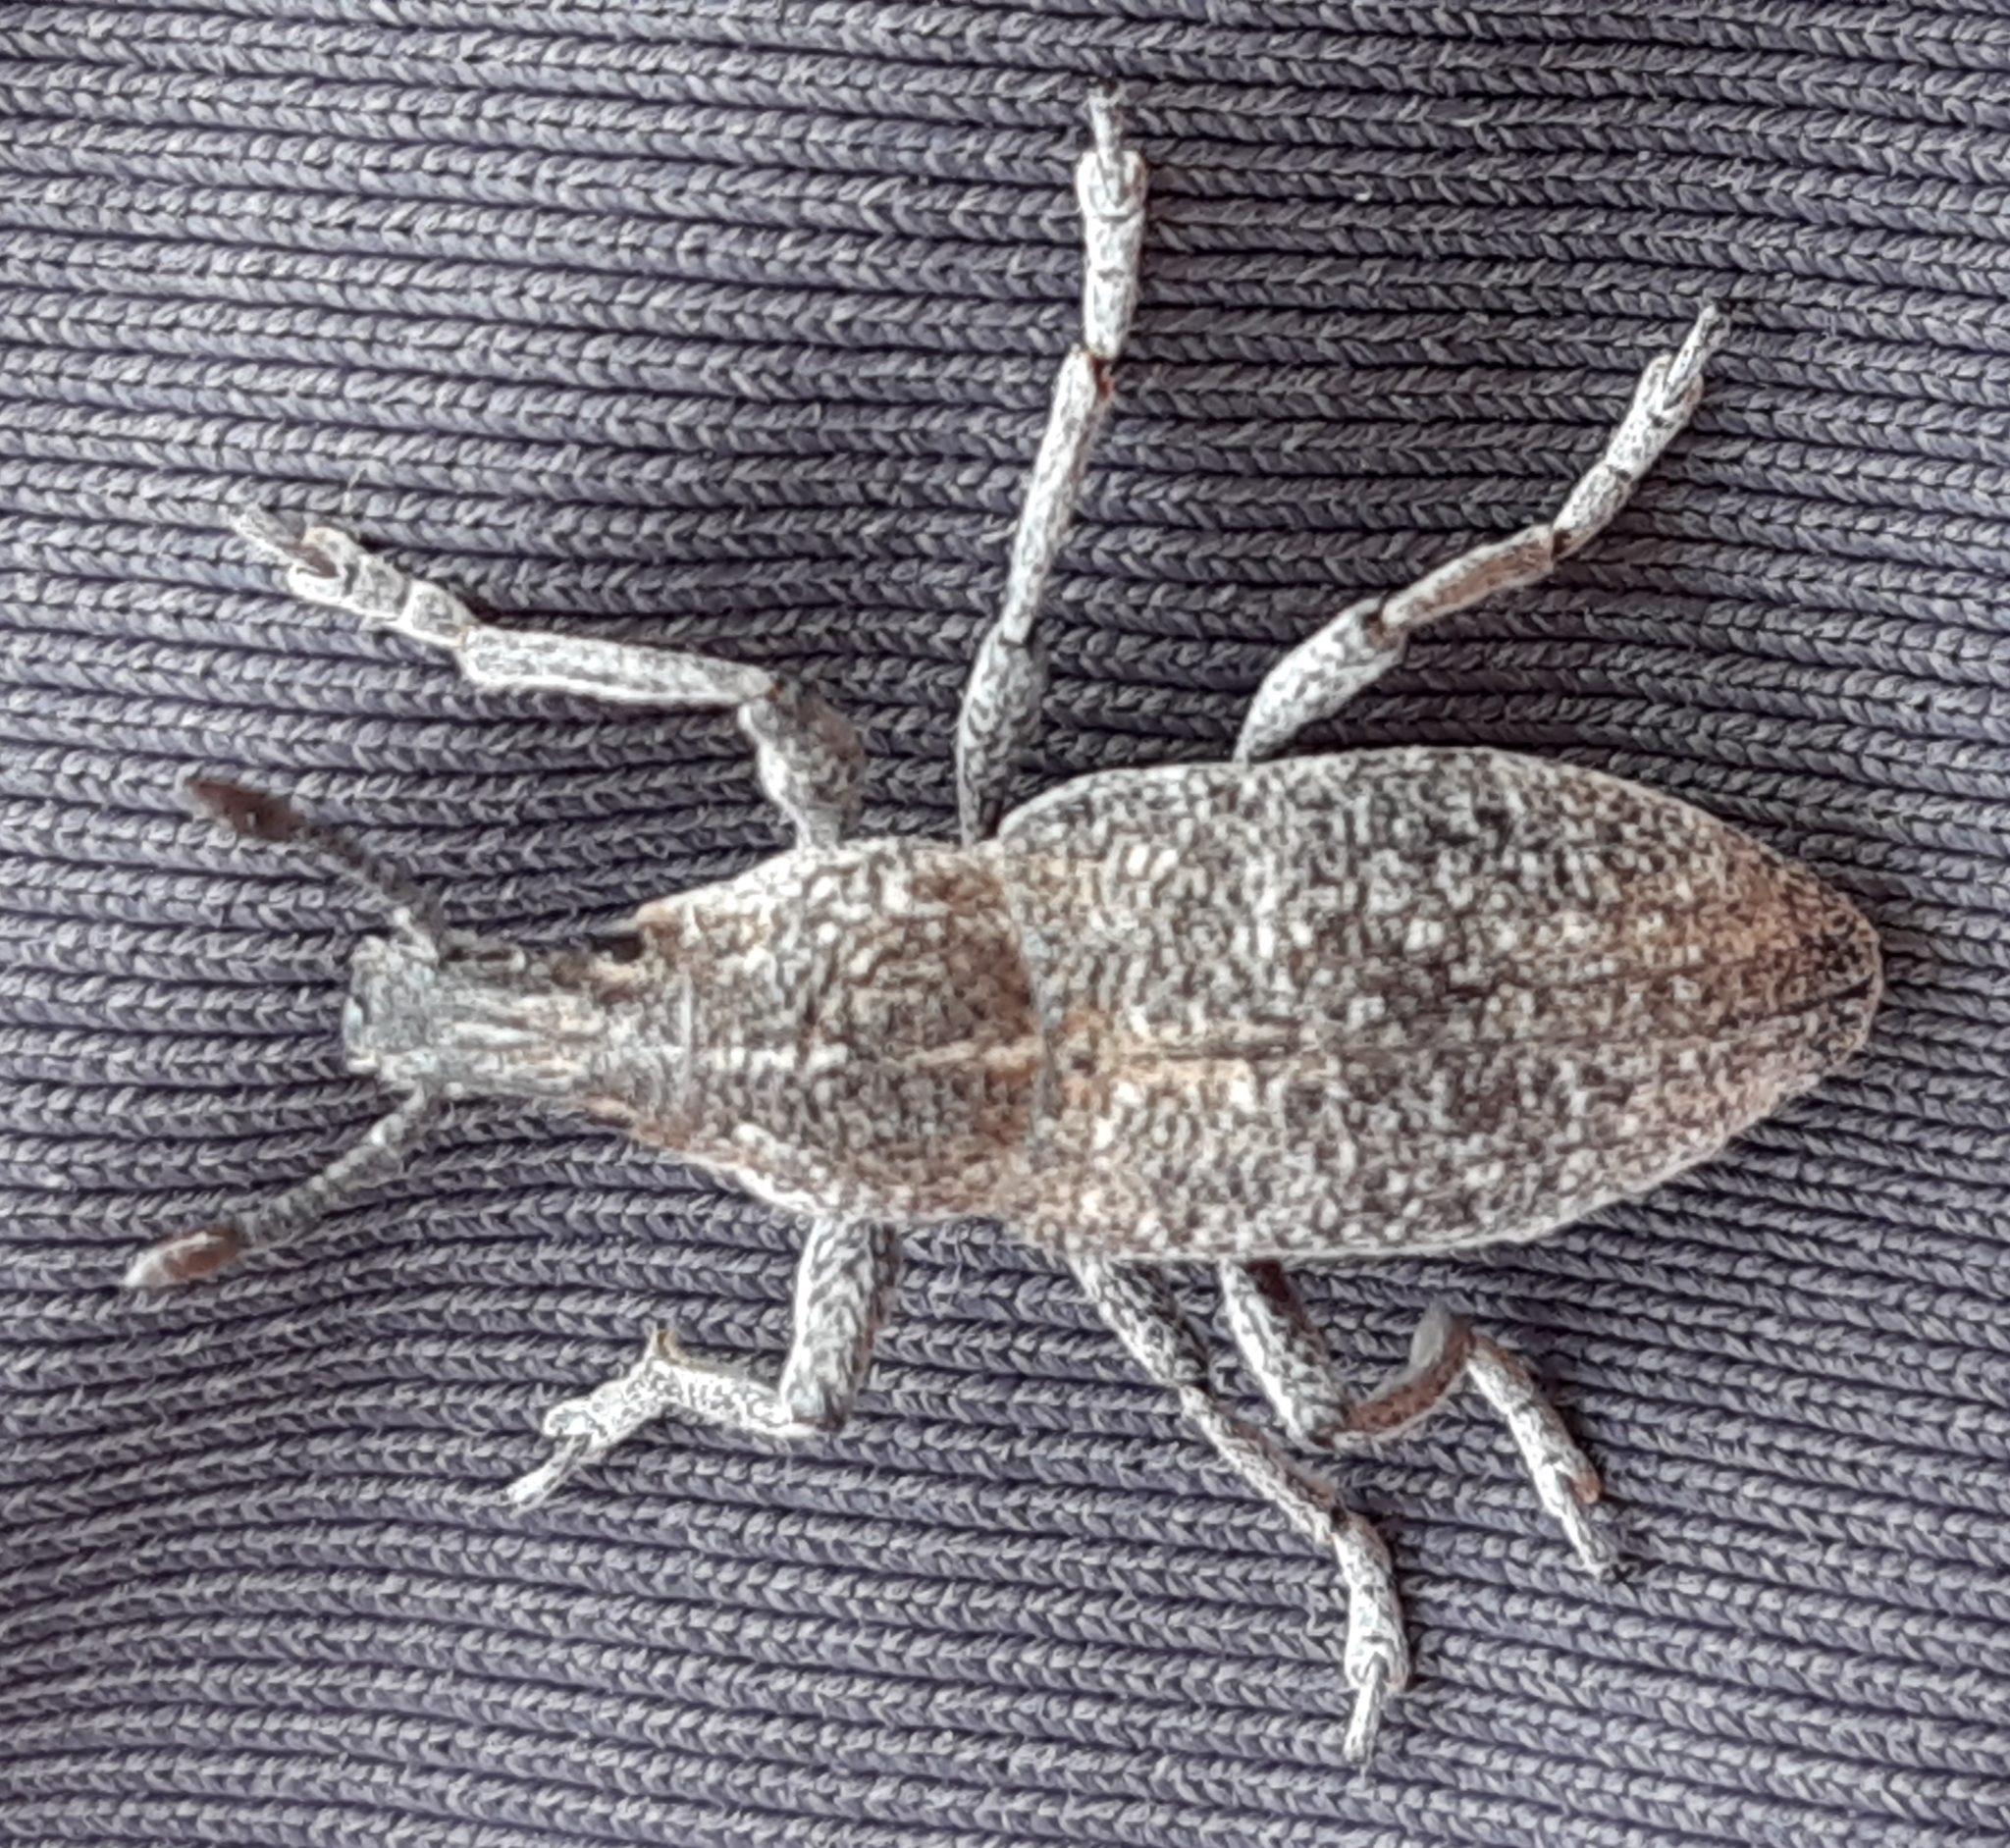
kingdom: Animalia
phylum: Arthropoda
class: Insecta
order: Coleoptera
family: Curculionidae
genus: Rhabdorrhynchus
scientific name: Rhabdorrhynchus vilhelmseni
